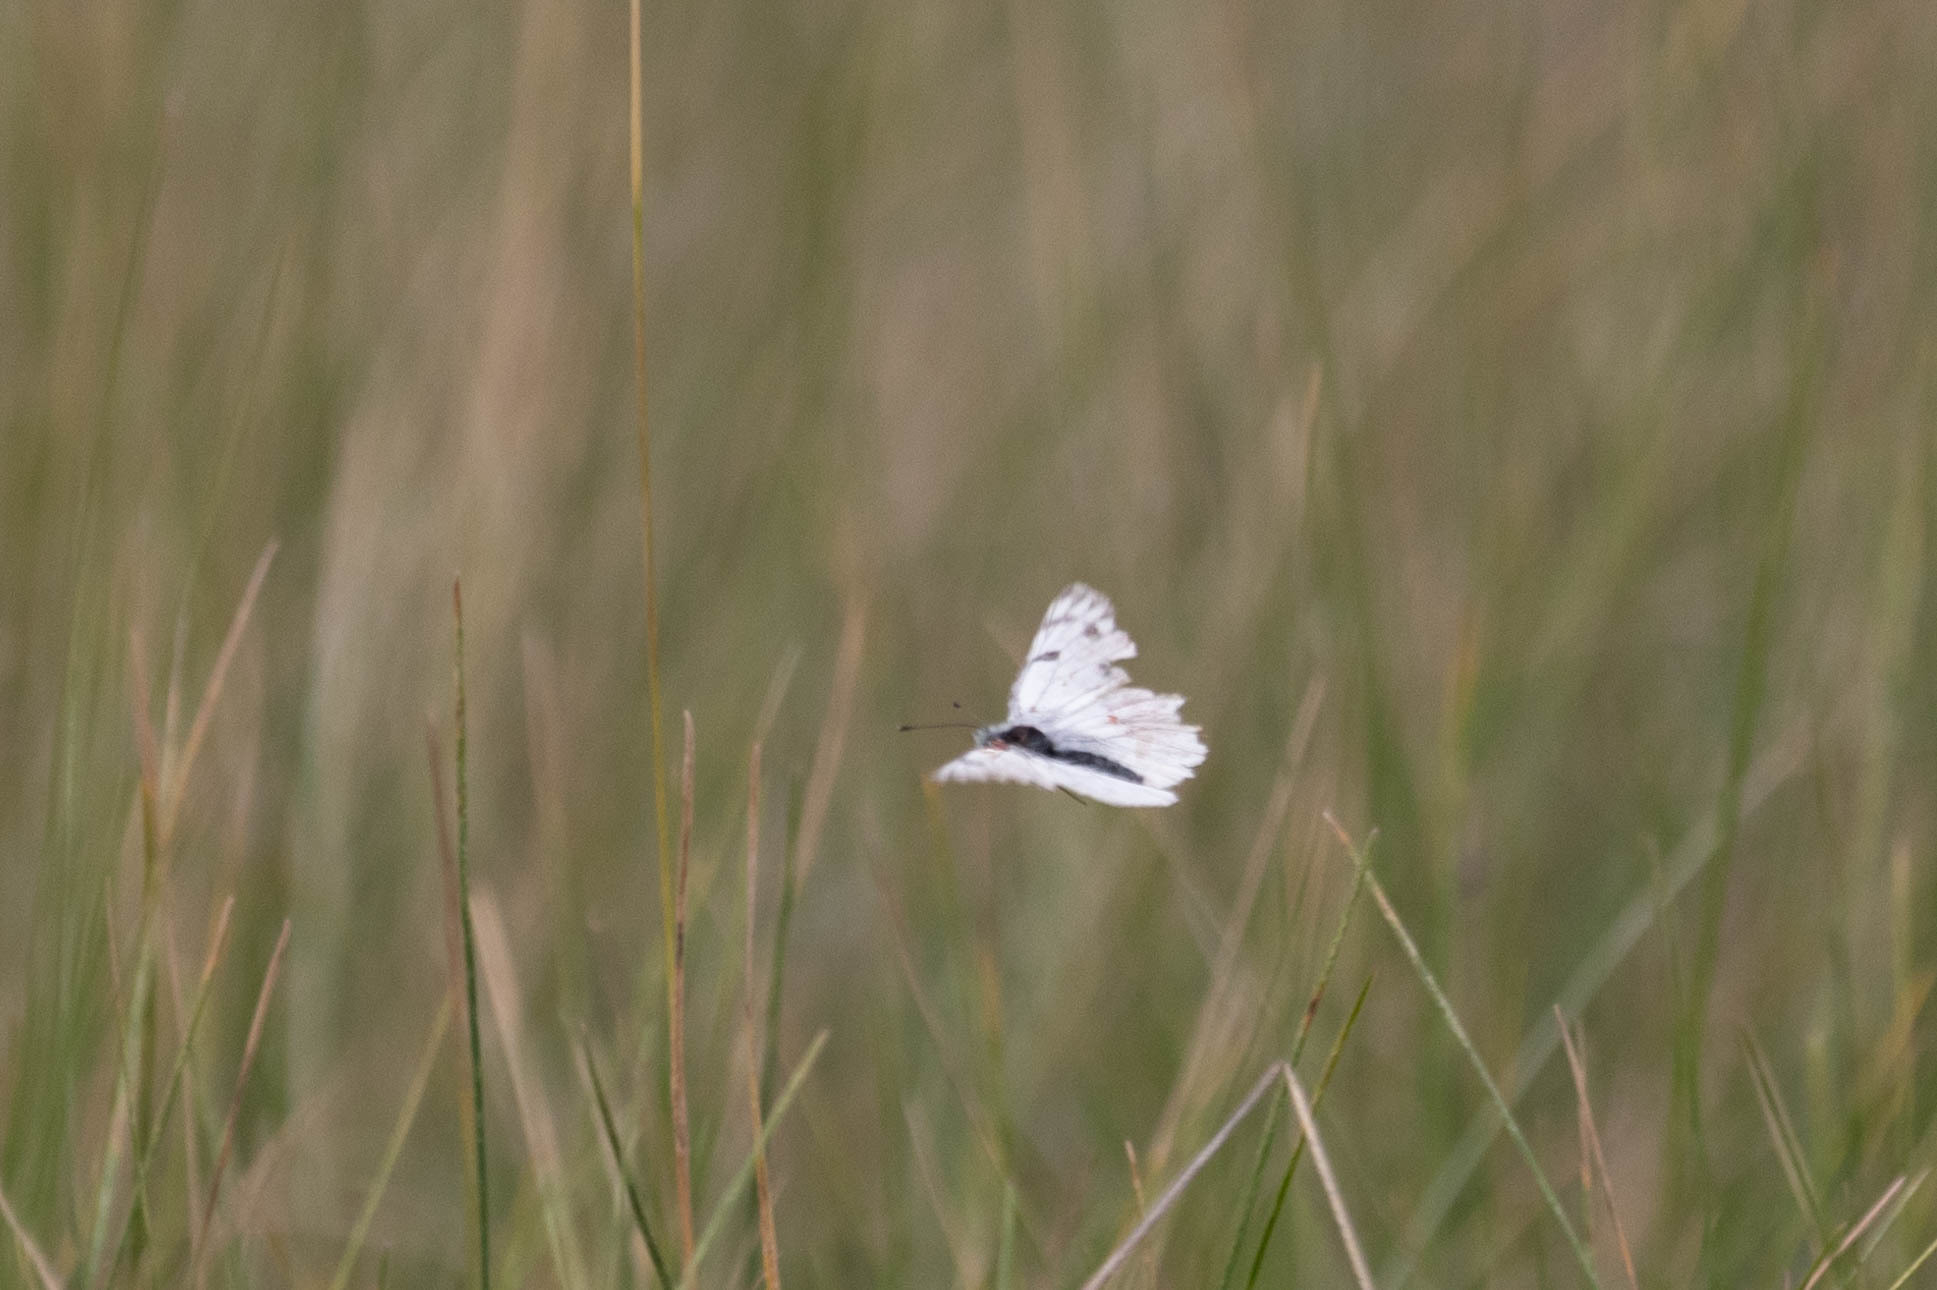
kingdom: Animalia
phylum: Arthropoda
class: Insecta
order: Lepidoptera
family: Pieridae
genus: Pontia
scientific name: Pontia occidentalis
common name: Western white
